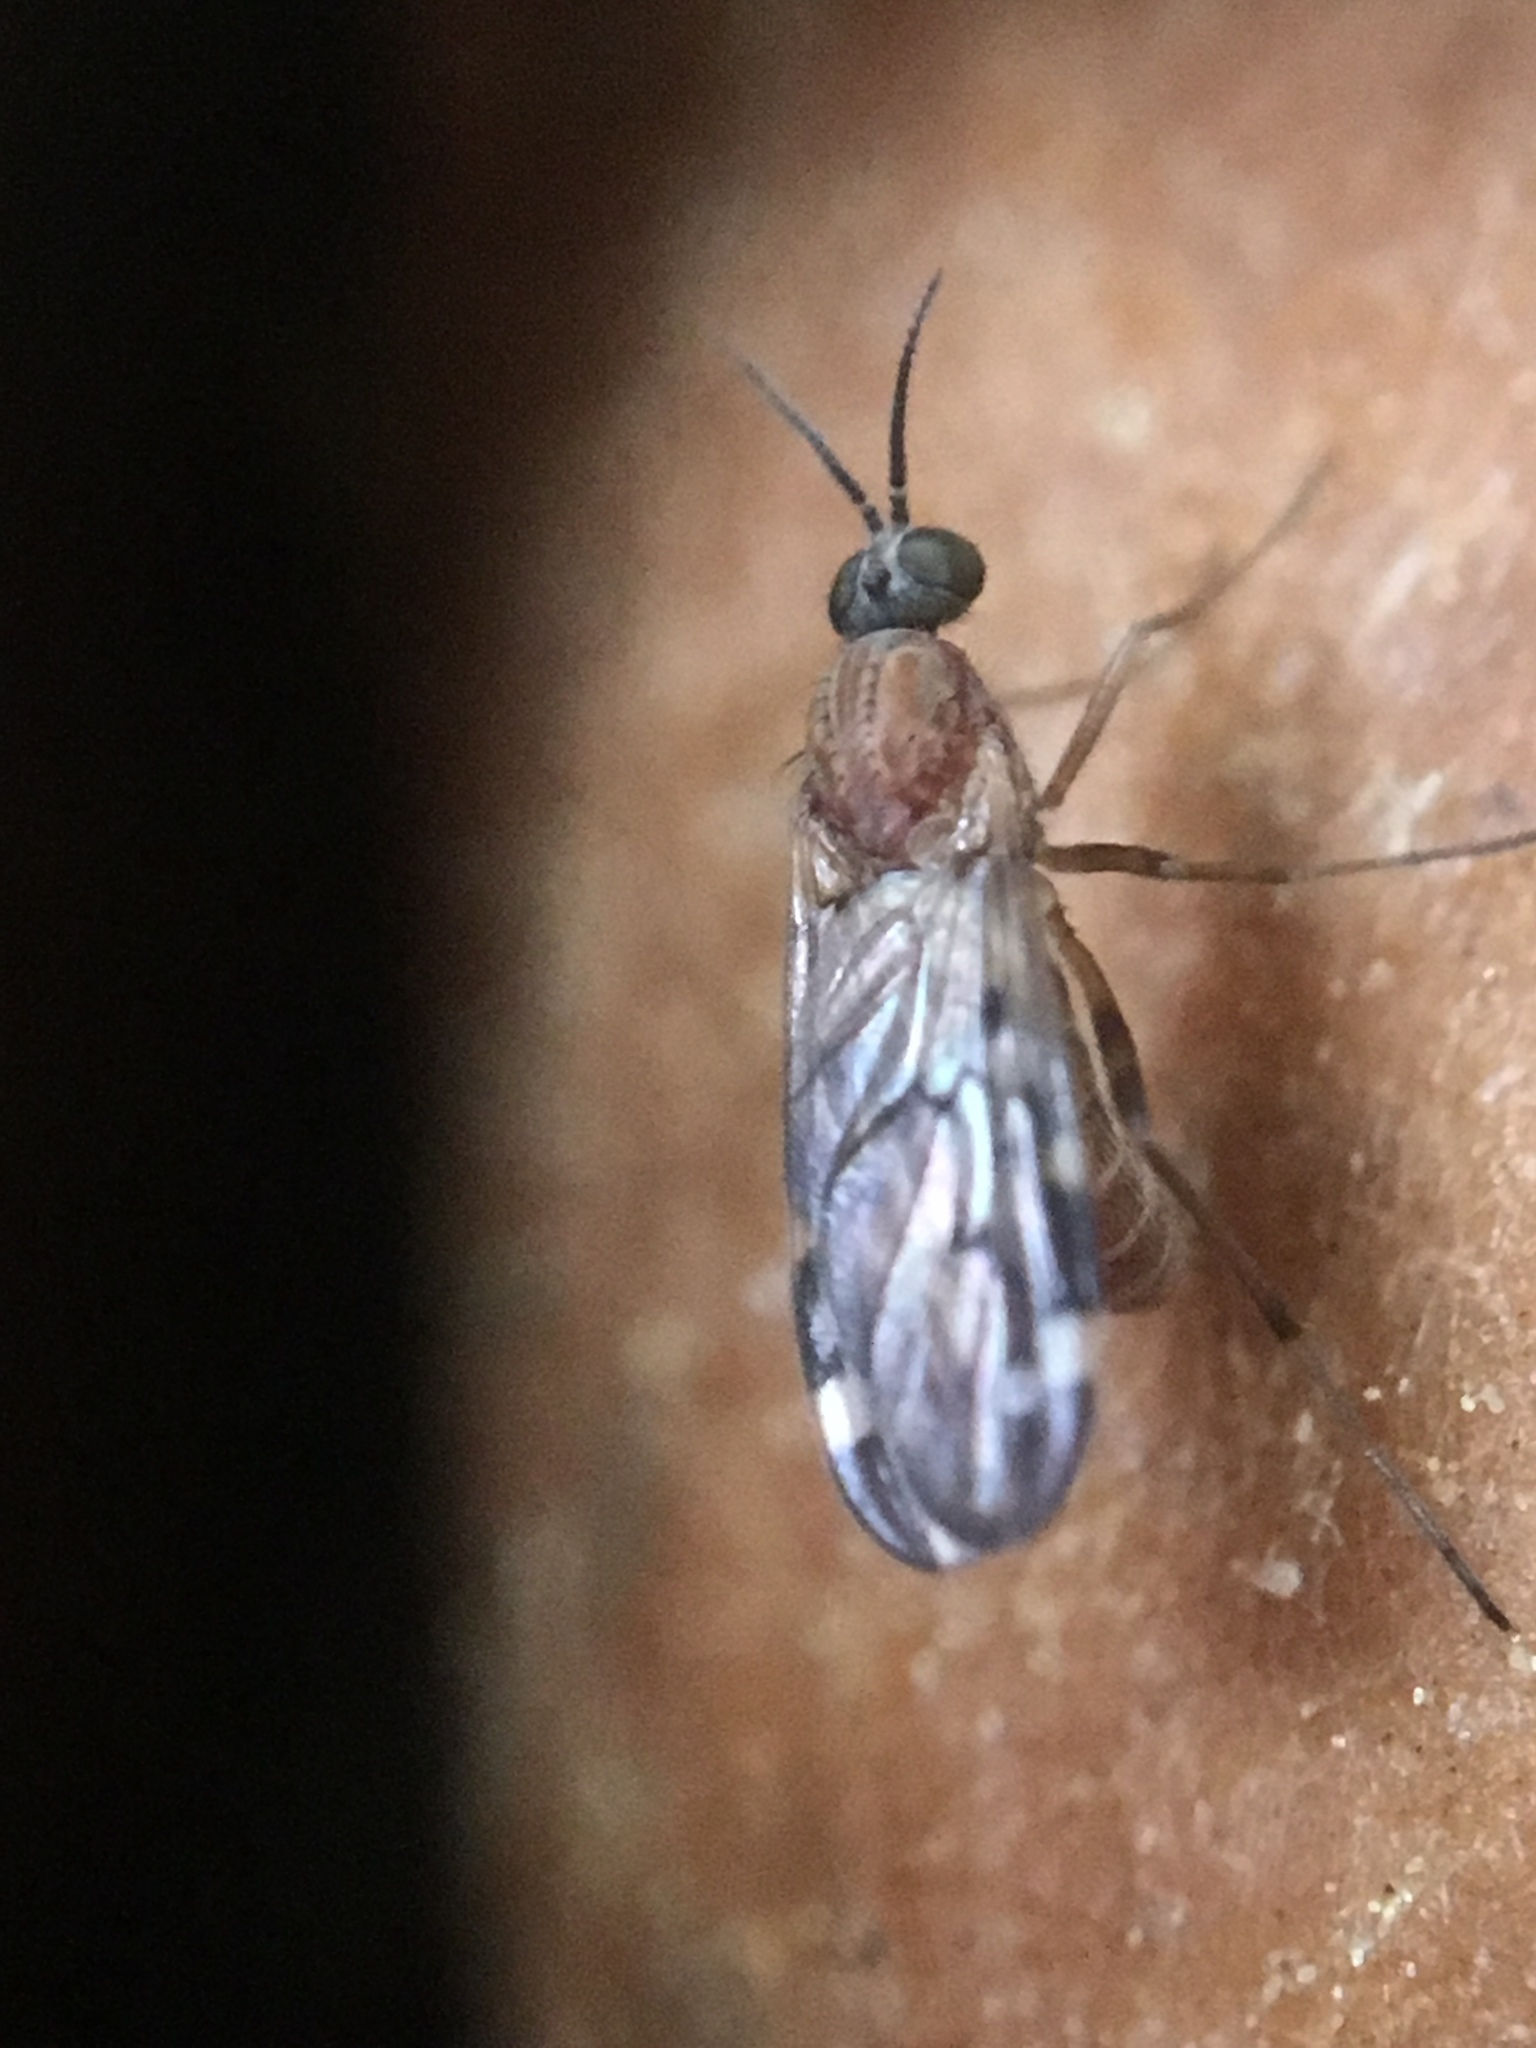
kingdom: Animalia
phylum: Arthropoda
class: Insecta
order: Diptera
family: Anisopodidae
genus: Sylvicola
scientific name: Sylvicola alternata
